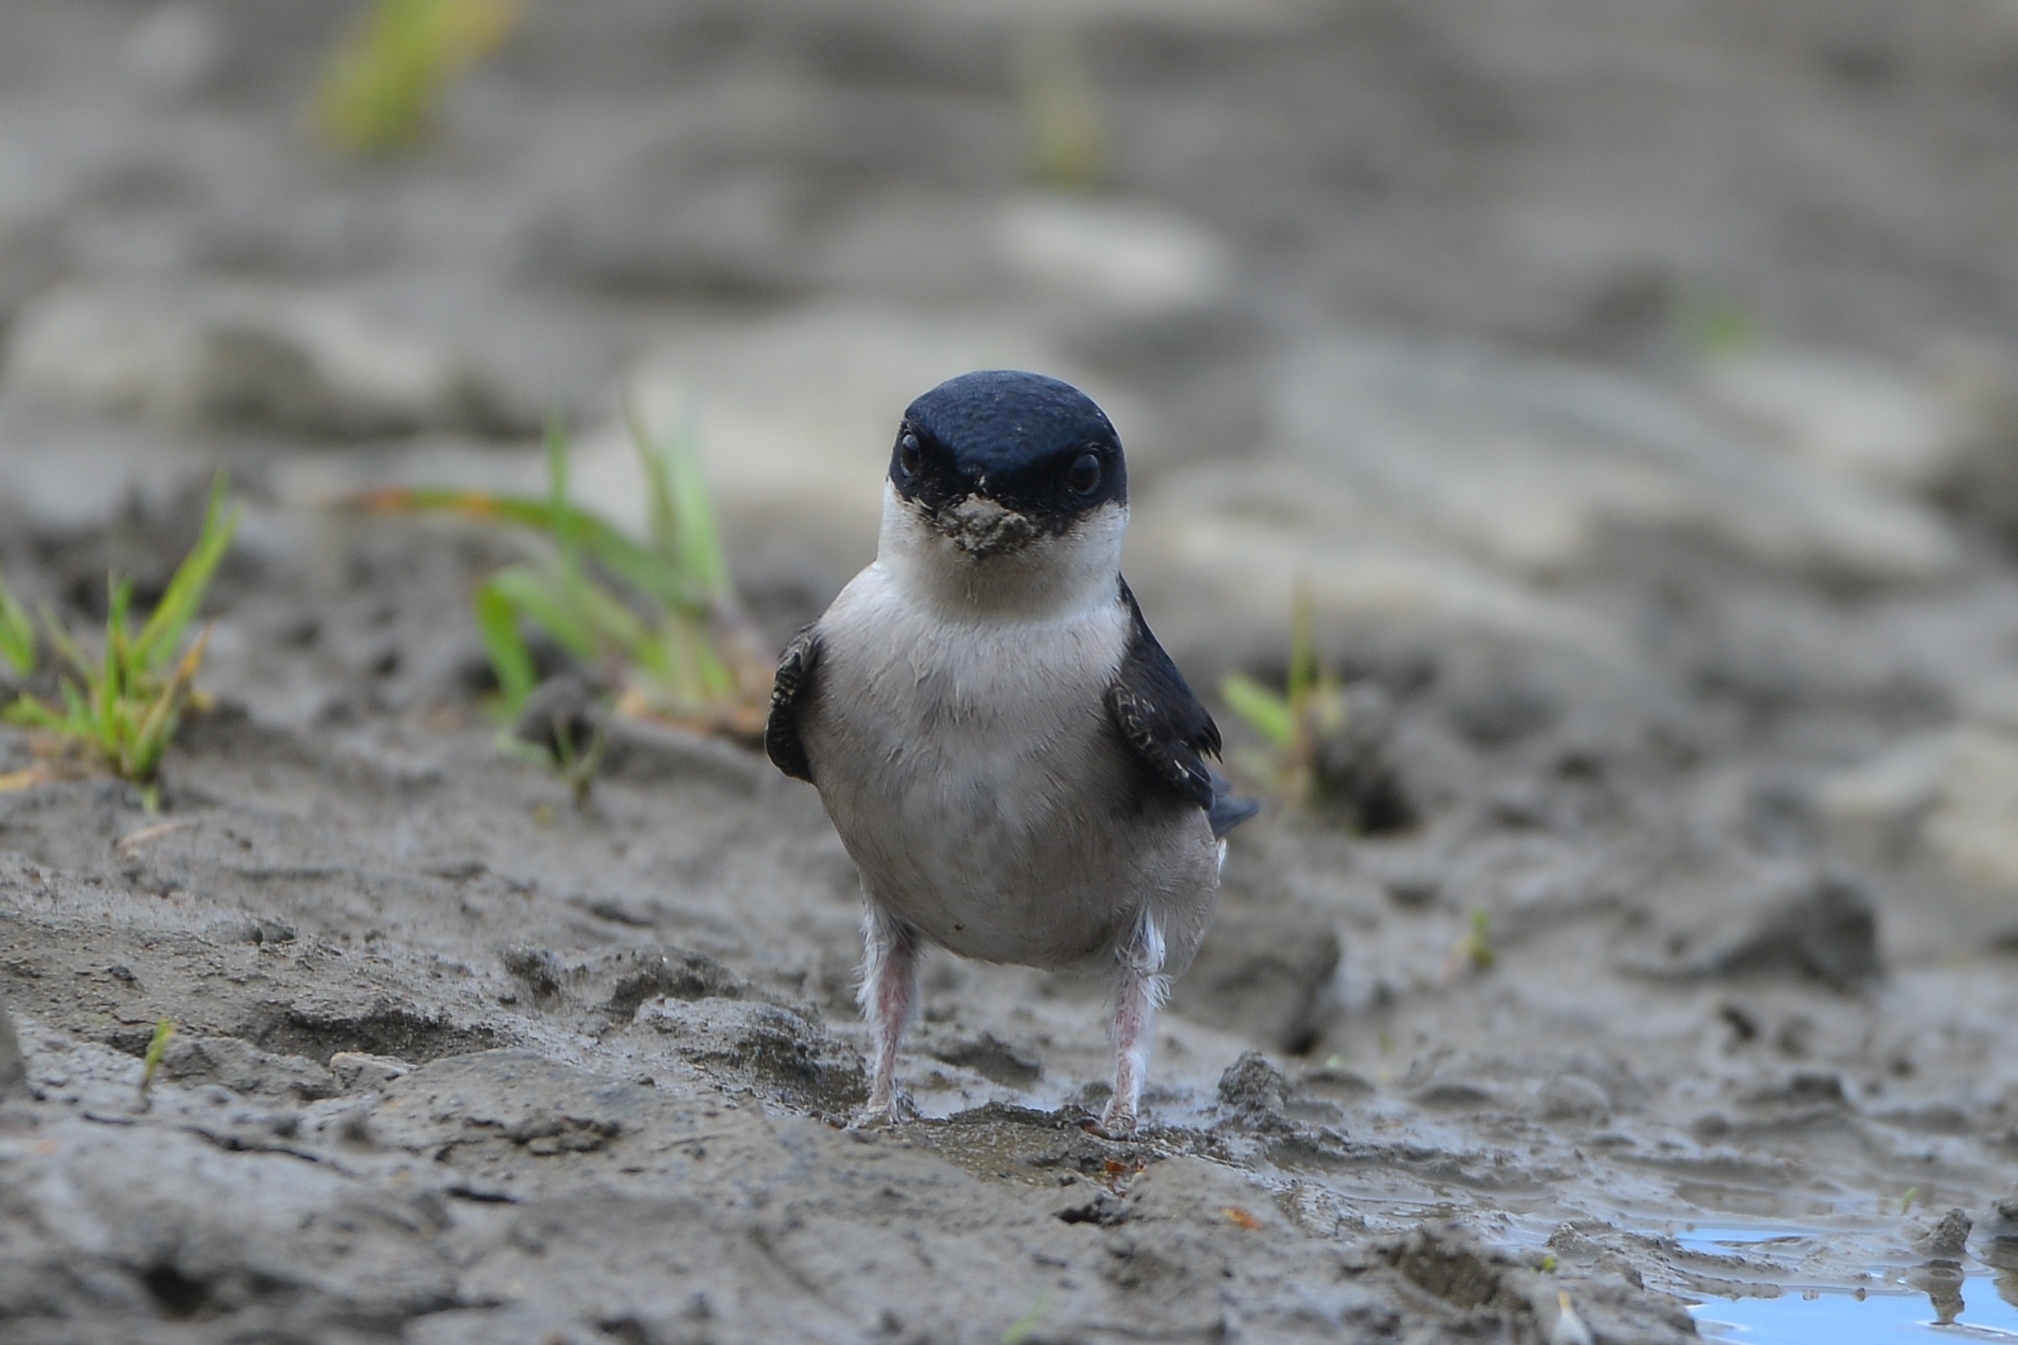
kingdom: Animalia
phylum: Chordata
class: Aves
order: Passeriformes
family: Hirundinidae
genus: Delichon
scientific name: Delichon dasypus
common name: Asian house martin
